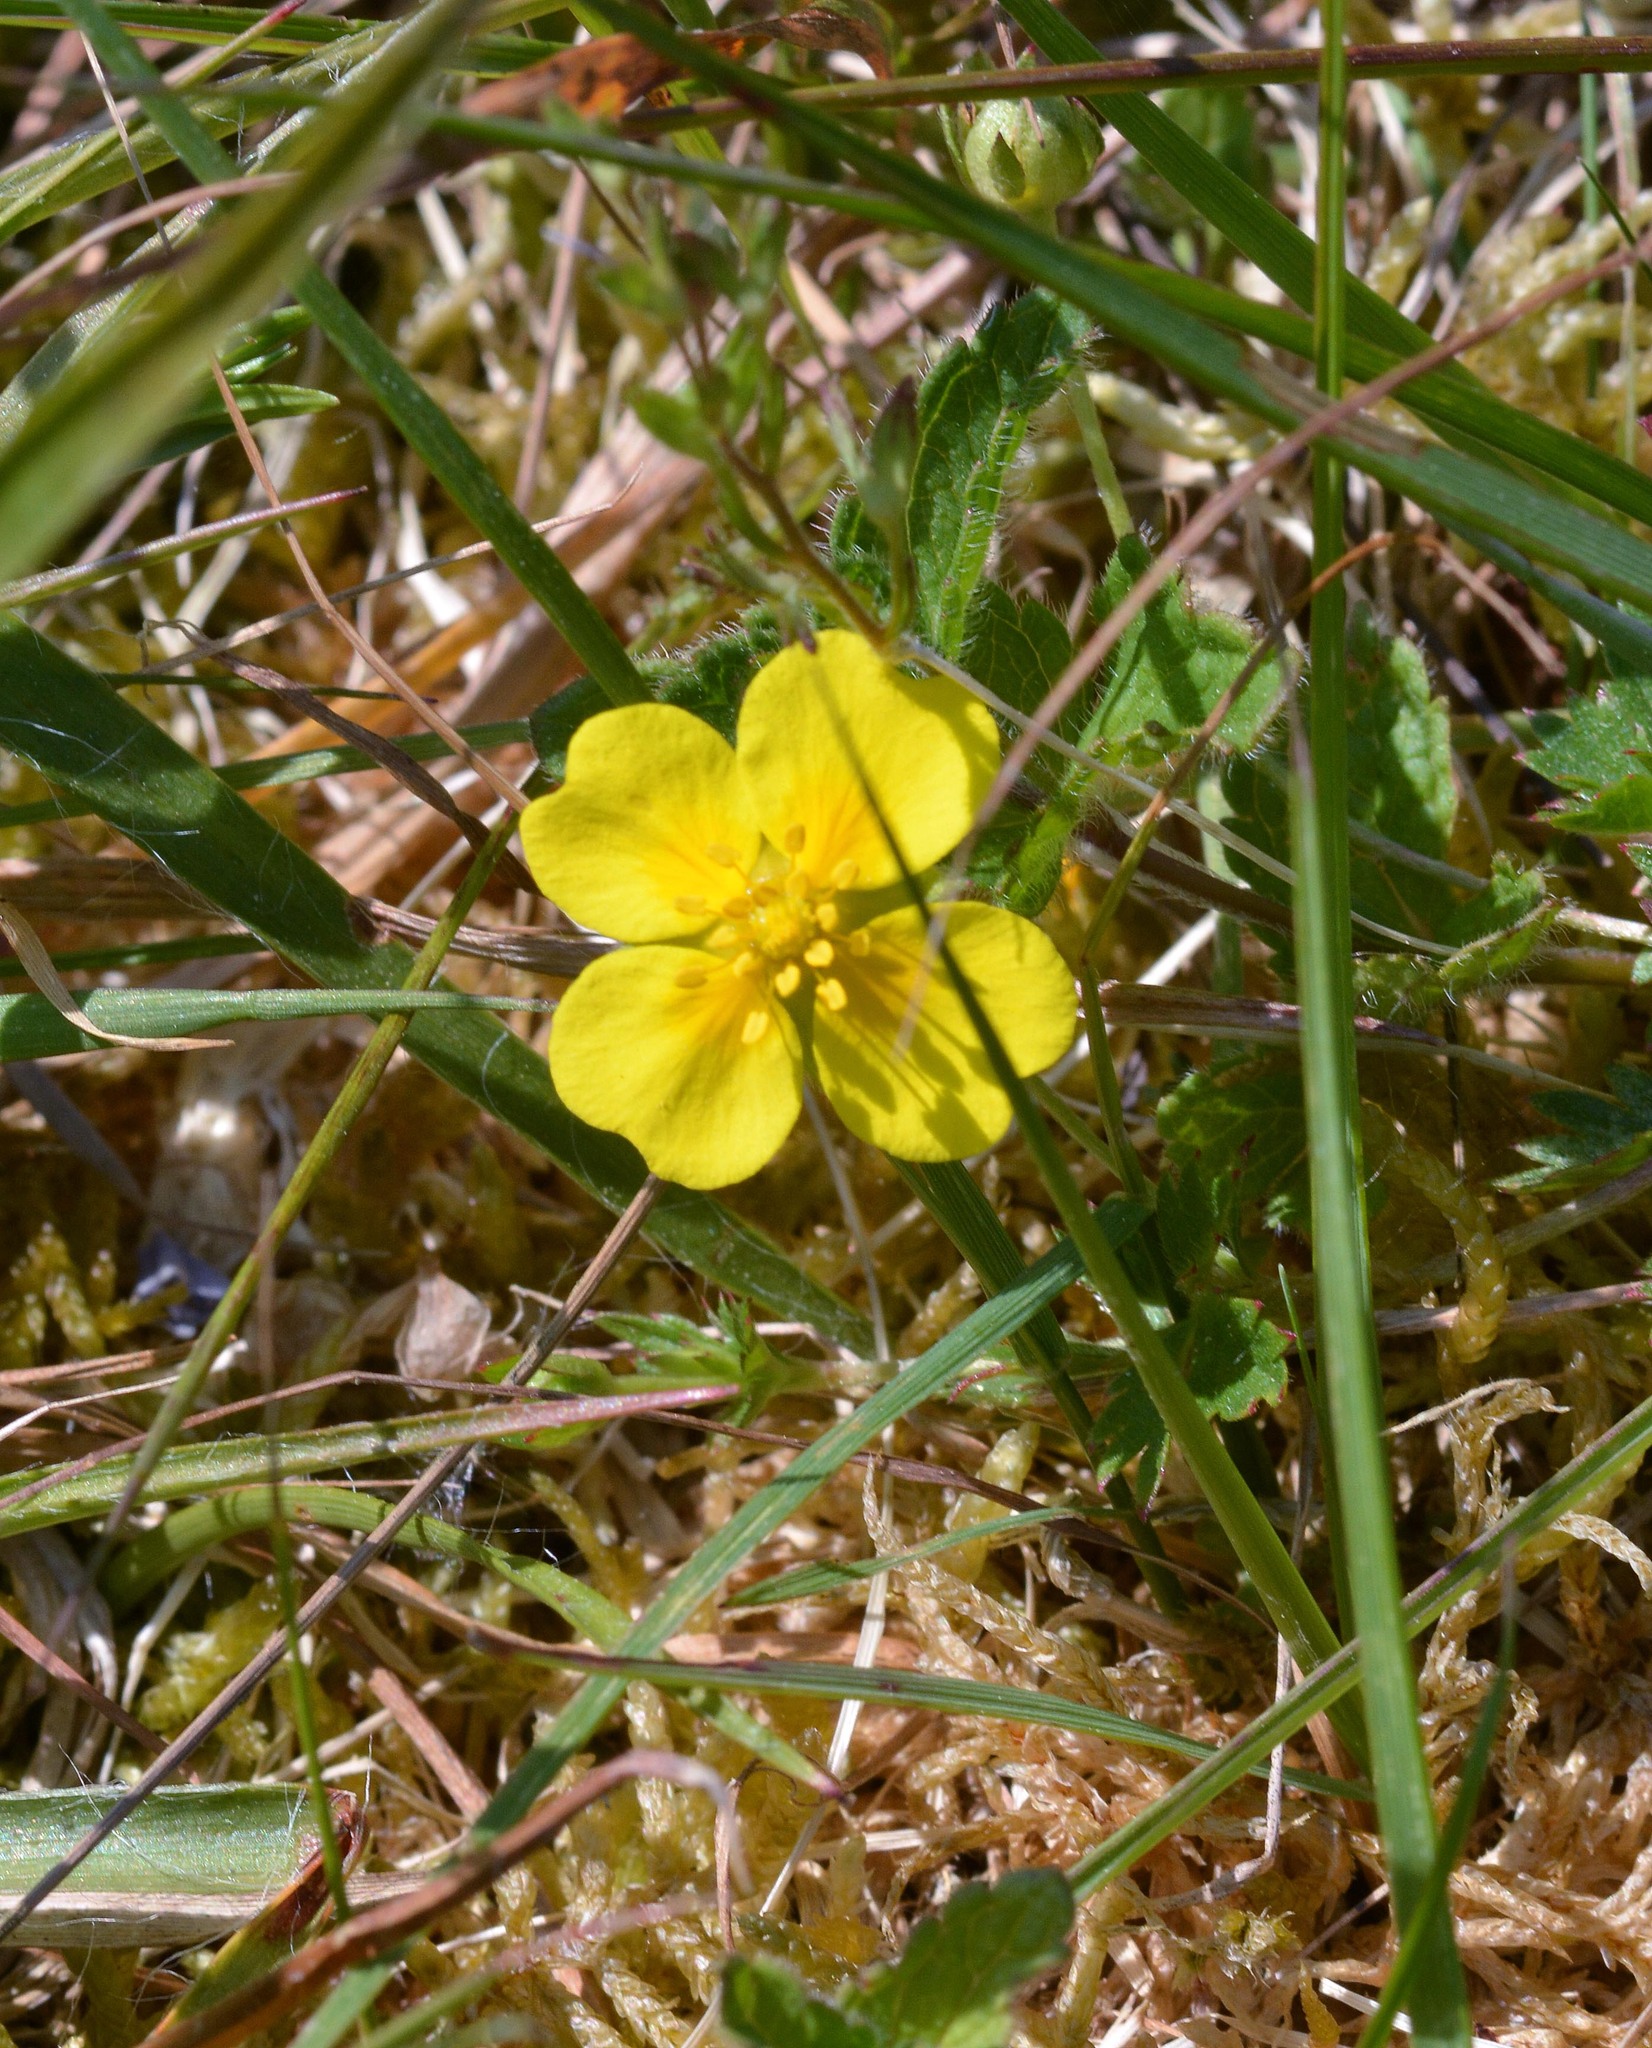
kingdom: Plantae
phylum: Tracheophyta
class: Magnoliopsida
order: Rosales
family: Rosaceae
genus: Potentilla
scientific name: Potentilla erecta
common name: Tormentil
